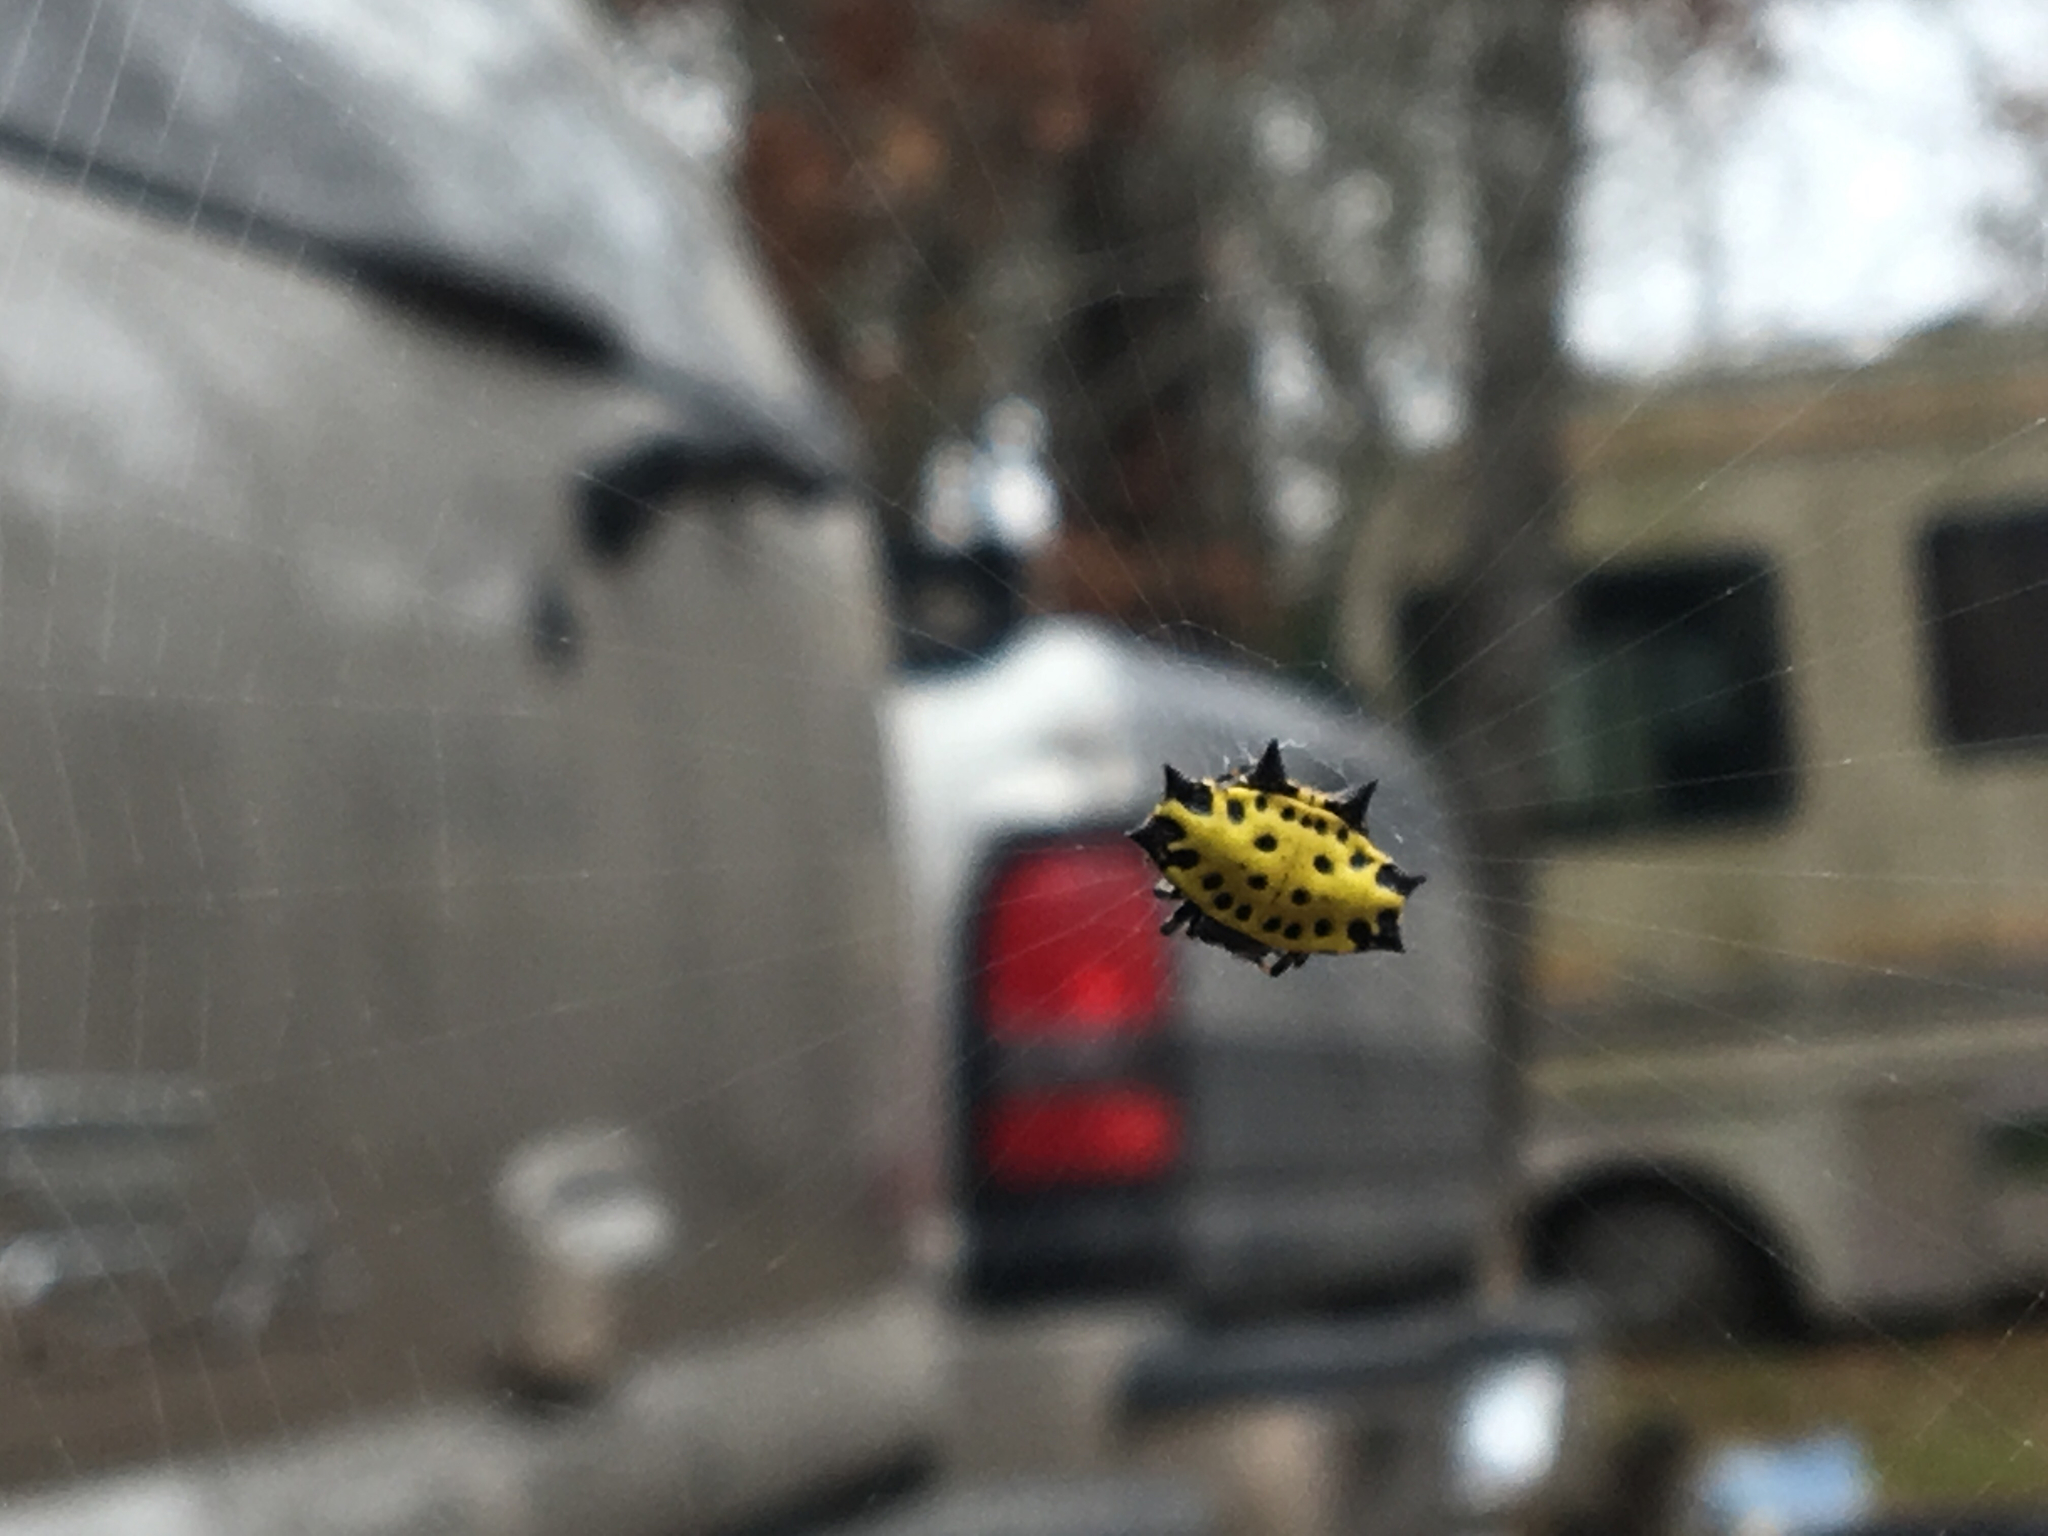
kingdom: Animalia
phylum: Arthropoda
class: Arachnida
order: Araneae
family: Araneidae
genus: Gasteracantha
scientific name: Gasteracantha cancriformis
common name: Orb weavers
